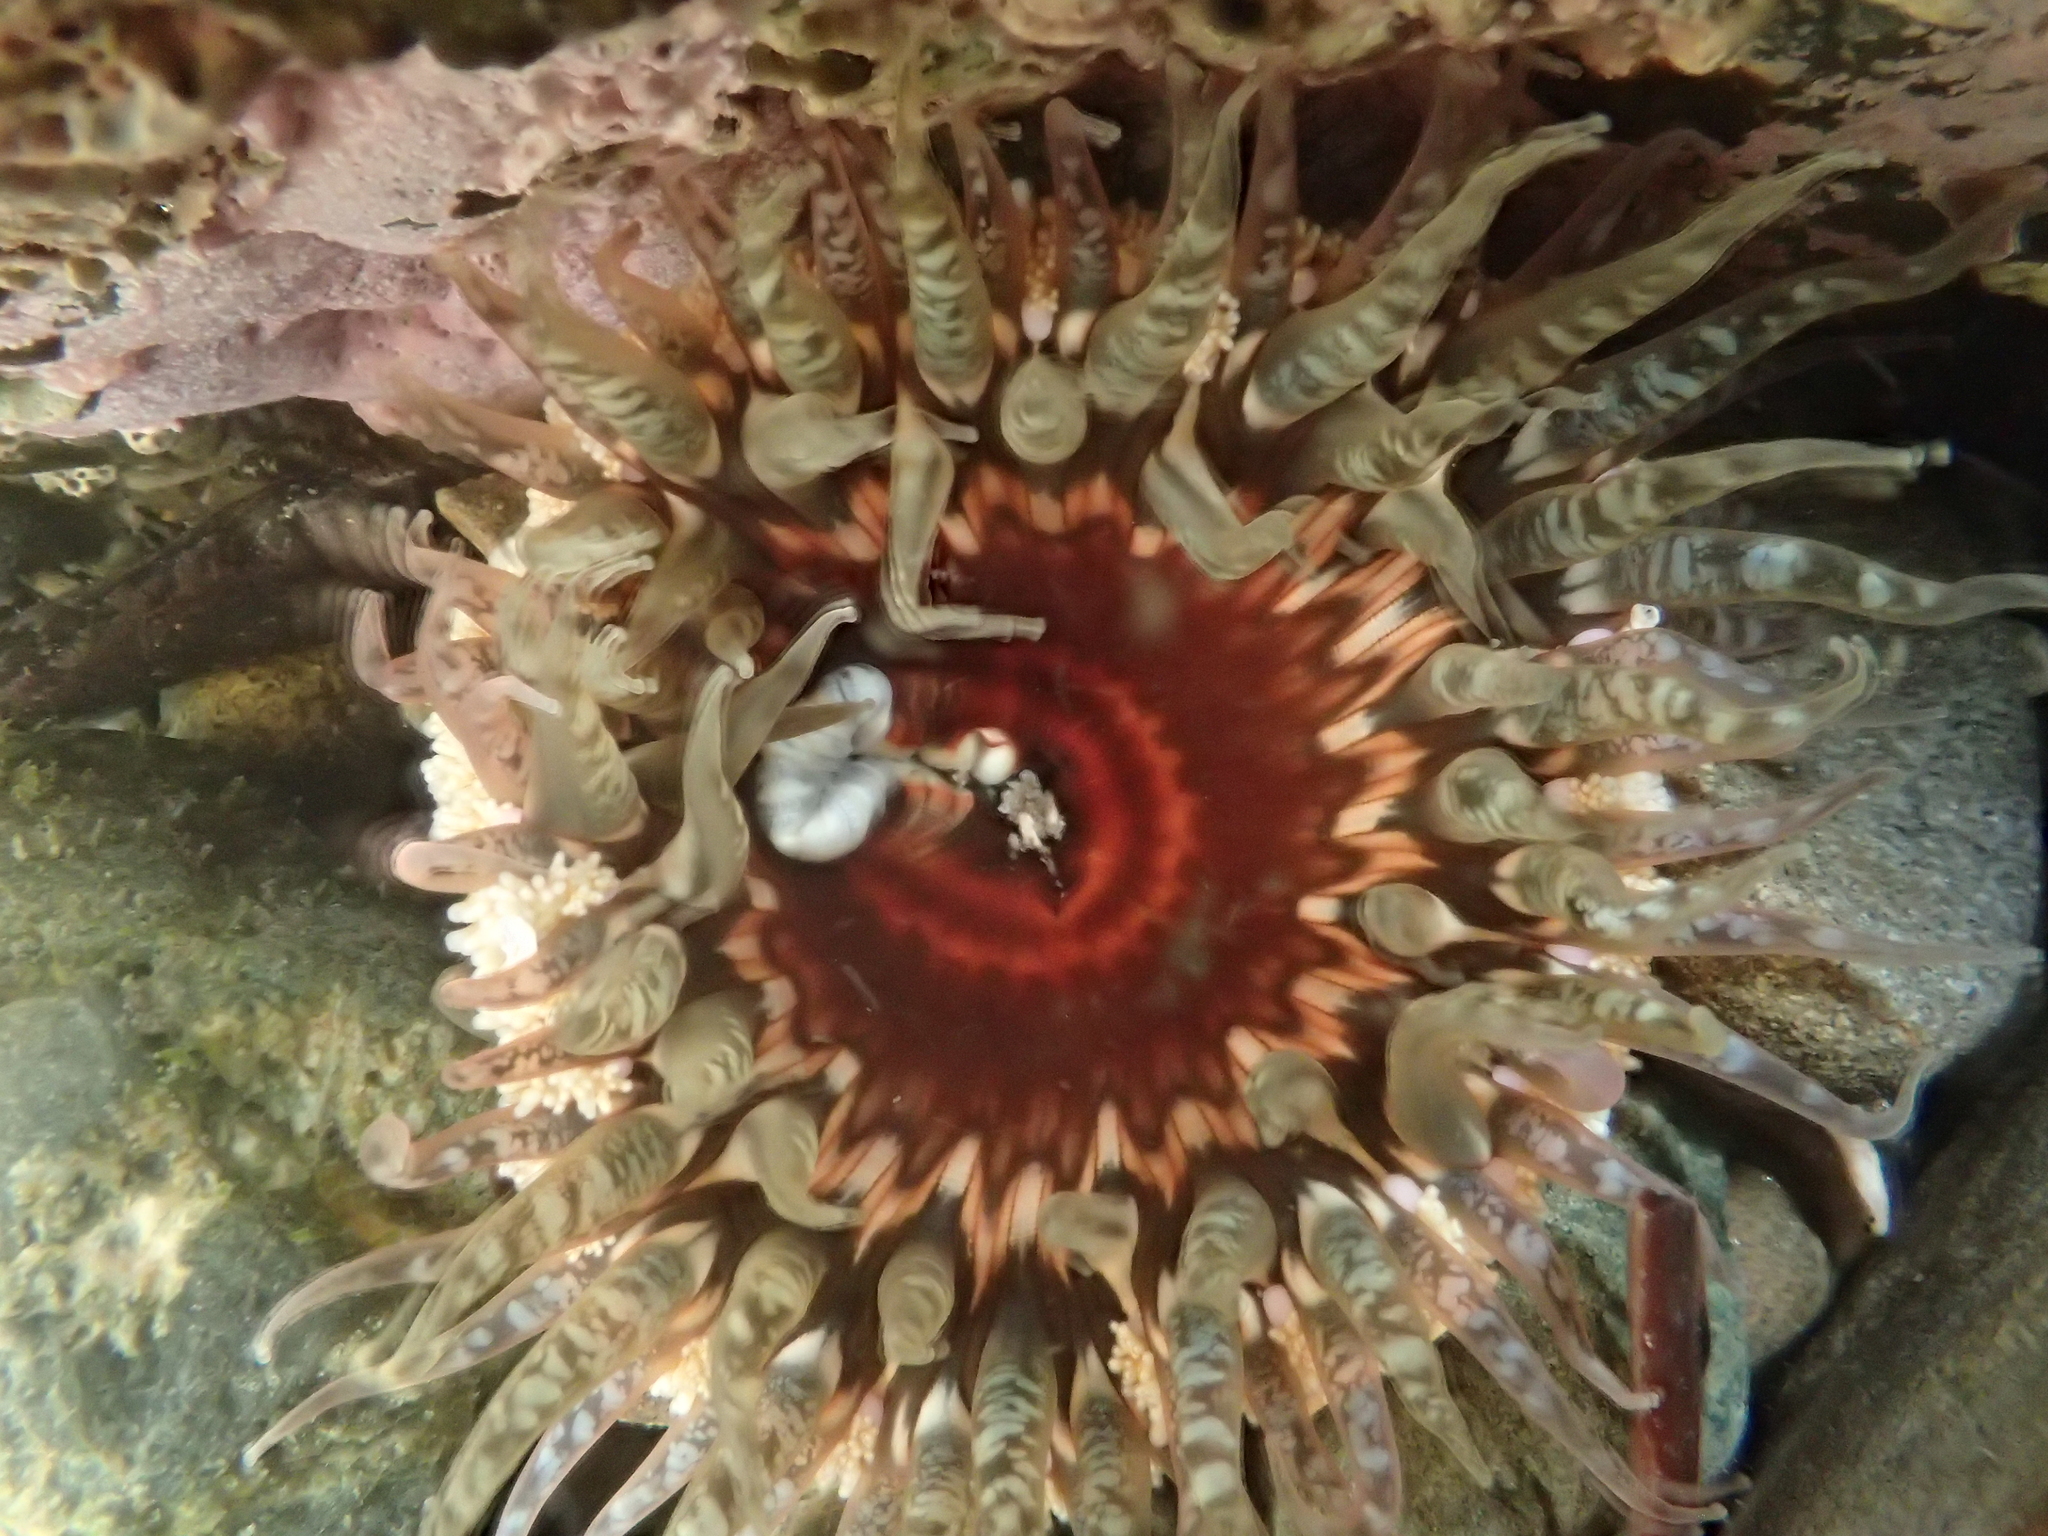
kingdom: Animalia
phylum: Cnidaria
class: Anthozoa
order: Actiniaria
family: Actiniidae
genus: Oulactis
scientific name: Oulactis muscosa
